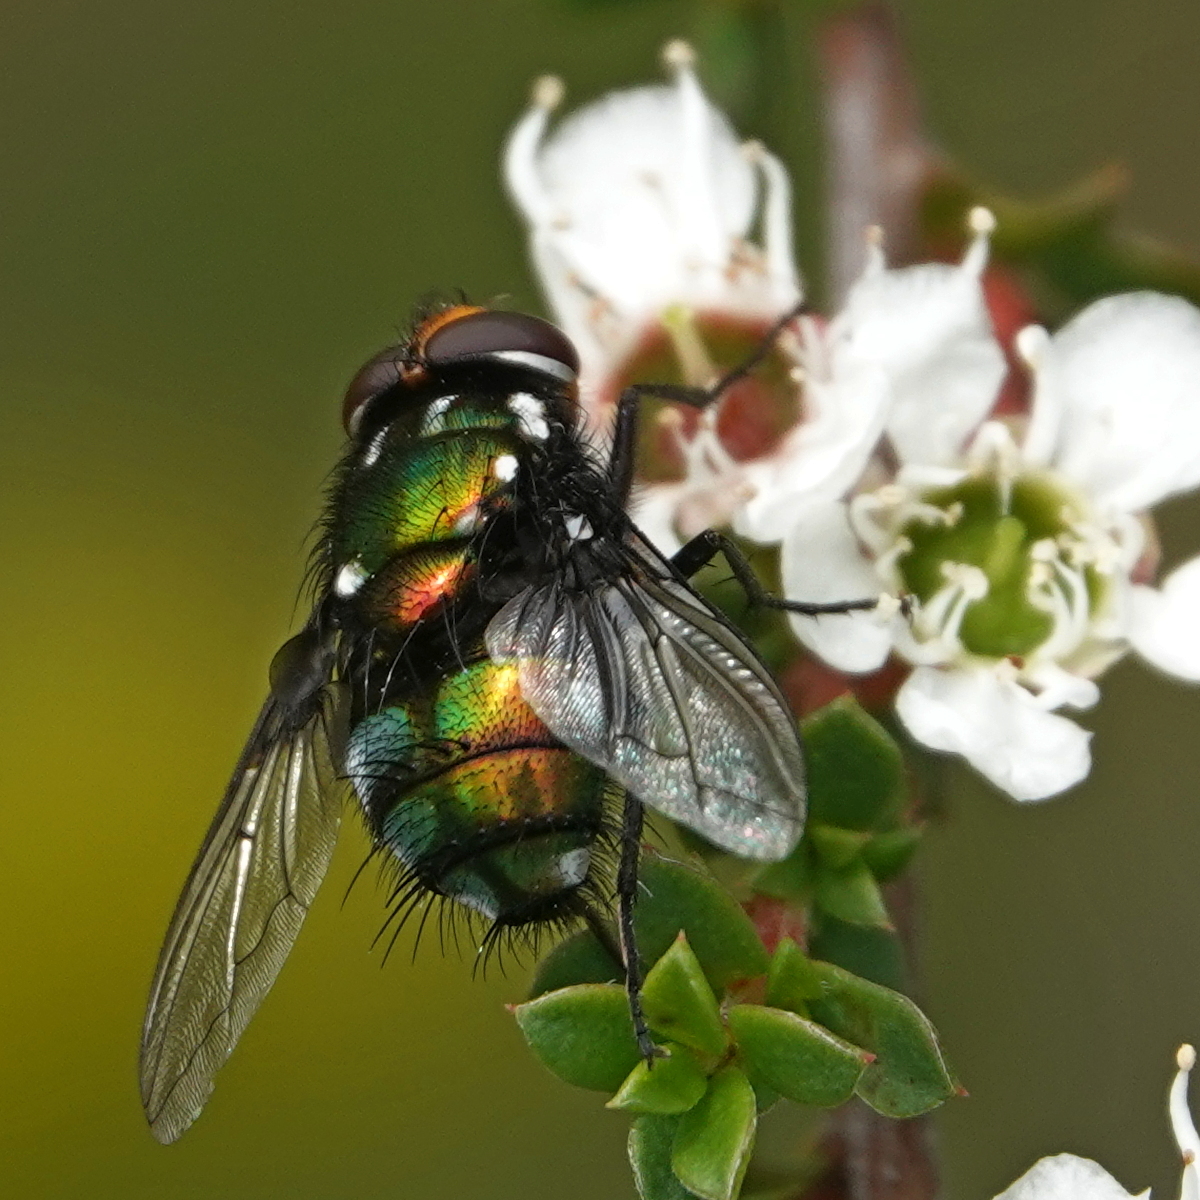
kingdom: Animalia
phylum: Arthropoda
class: Insecta
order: Diptera
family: Calliphoridae
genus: Amenia
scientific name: Amenia chrysame
